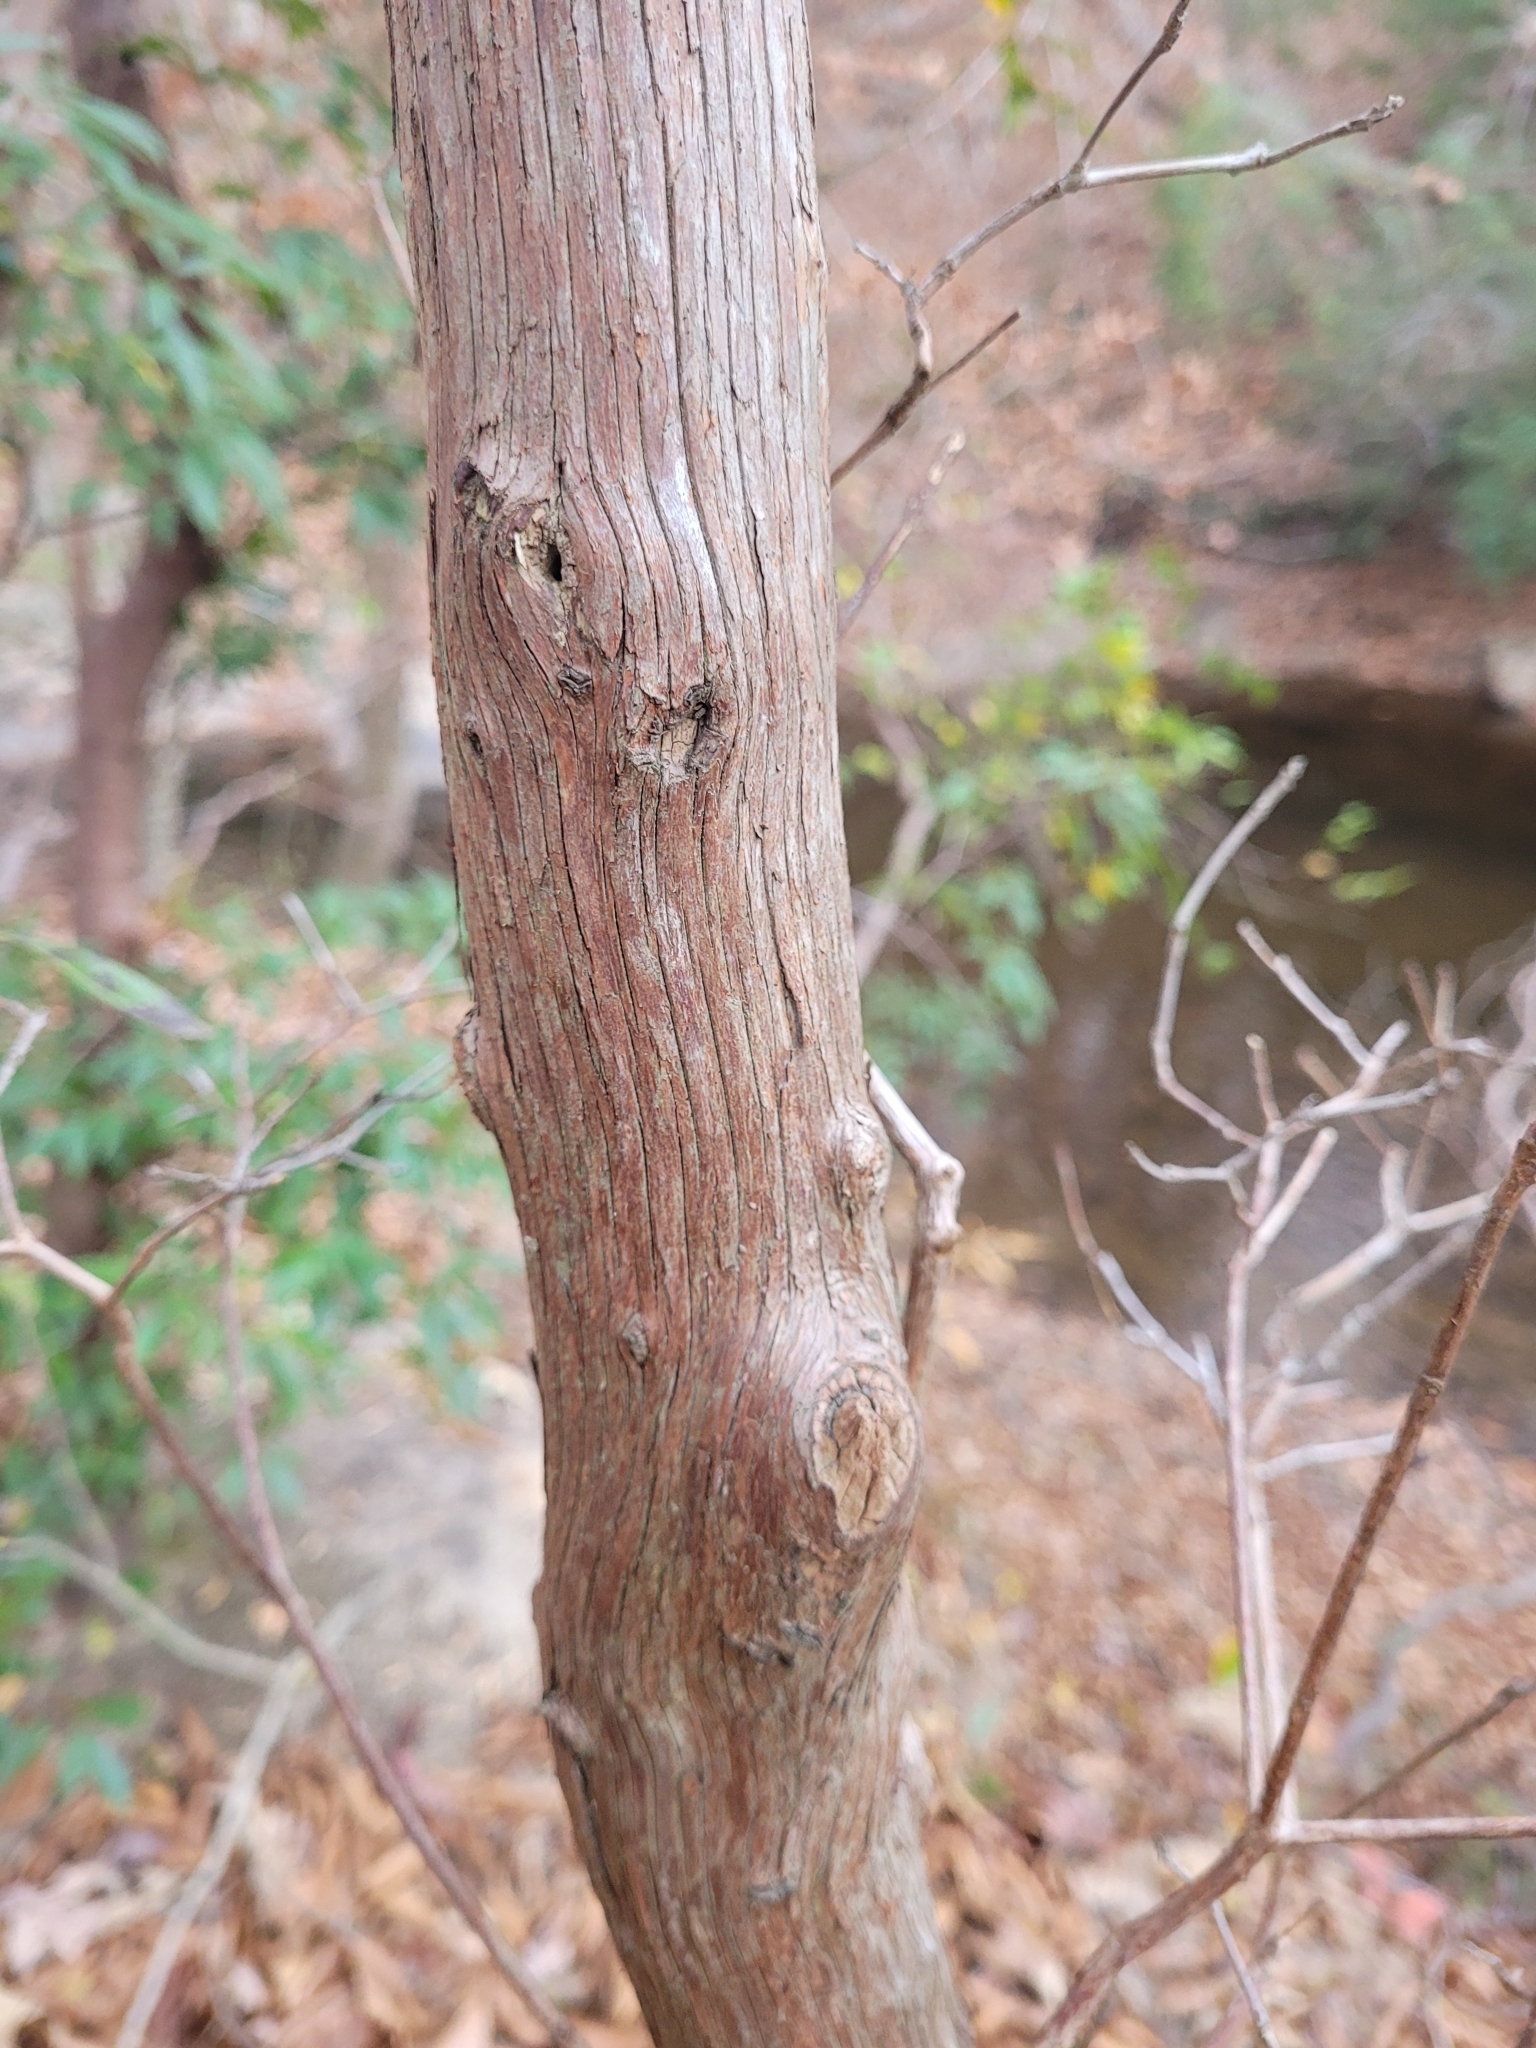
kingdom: Plantae
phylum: Tracheophyta
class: Magnoliopsida
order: Ericales
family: Ericaceae
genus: Kalmia
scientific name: Kalmia latifolia
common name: Mountain-laurel
